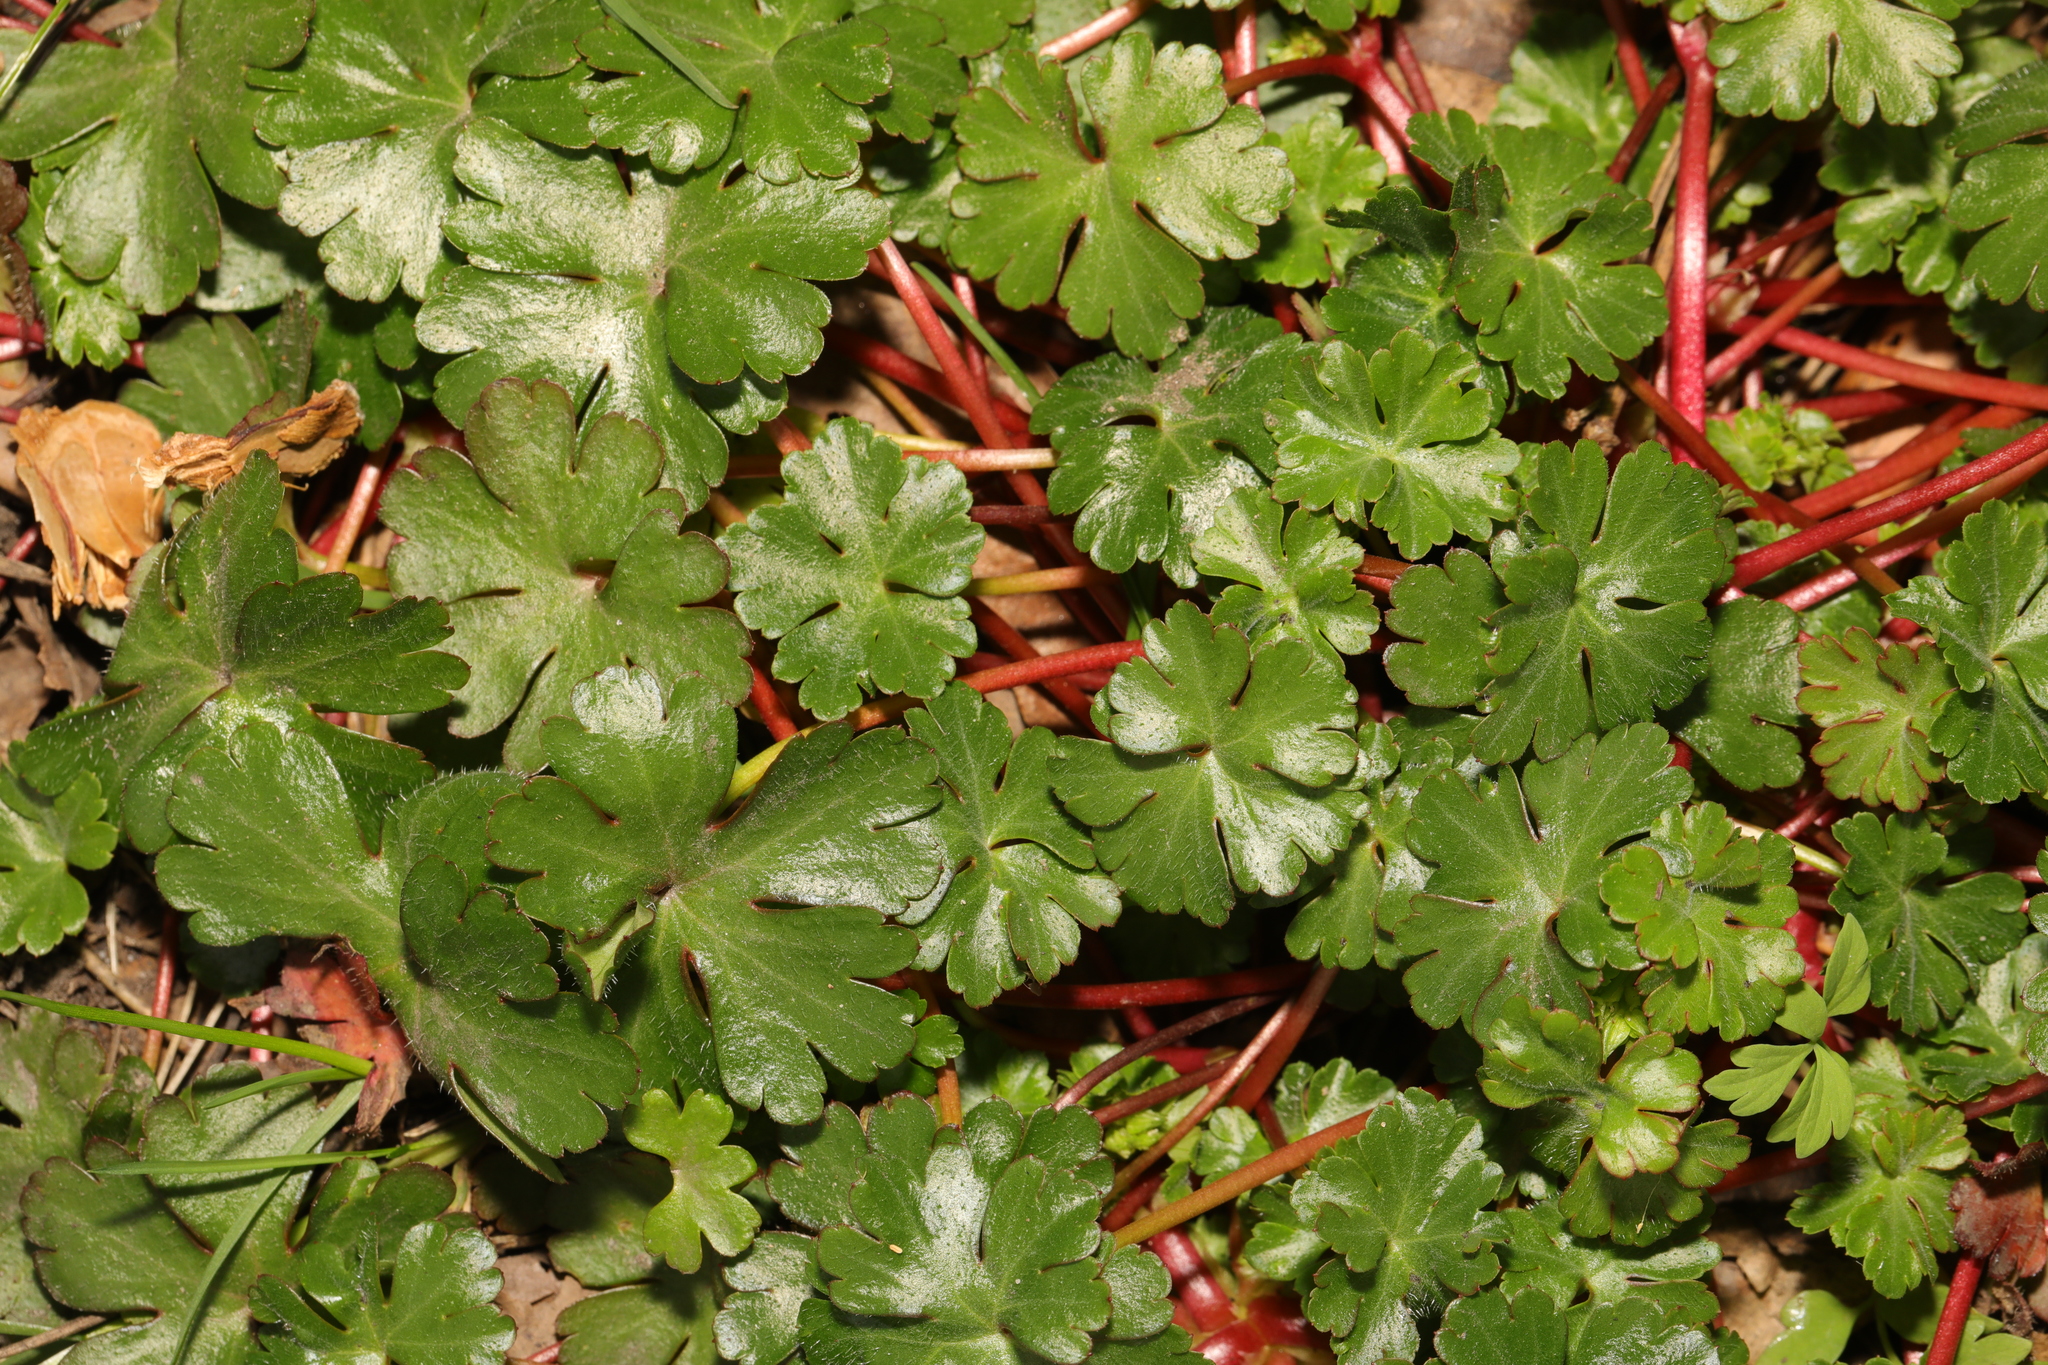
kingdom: Plantae
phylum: Tracheophyta
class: Magnoliopsida
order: Geraniales
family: Geraniaceae
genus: Geranium
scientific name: Geranium lucidum
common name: Shining crane's-bill
